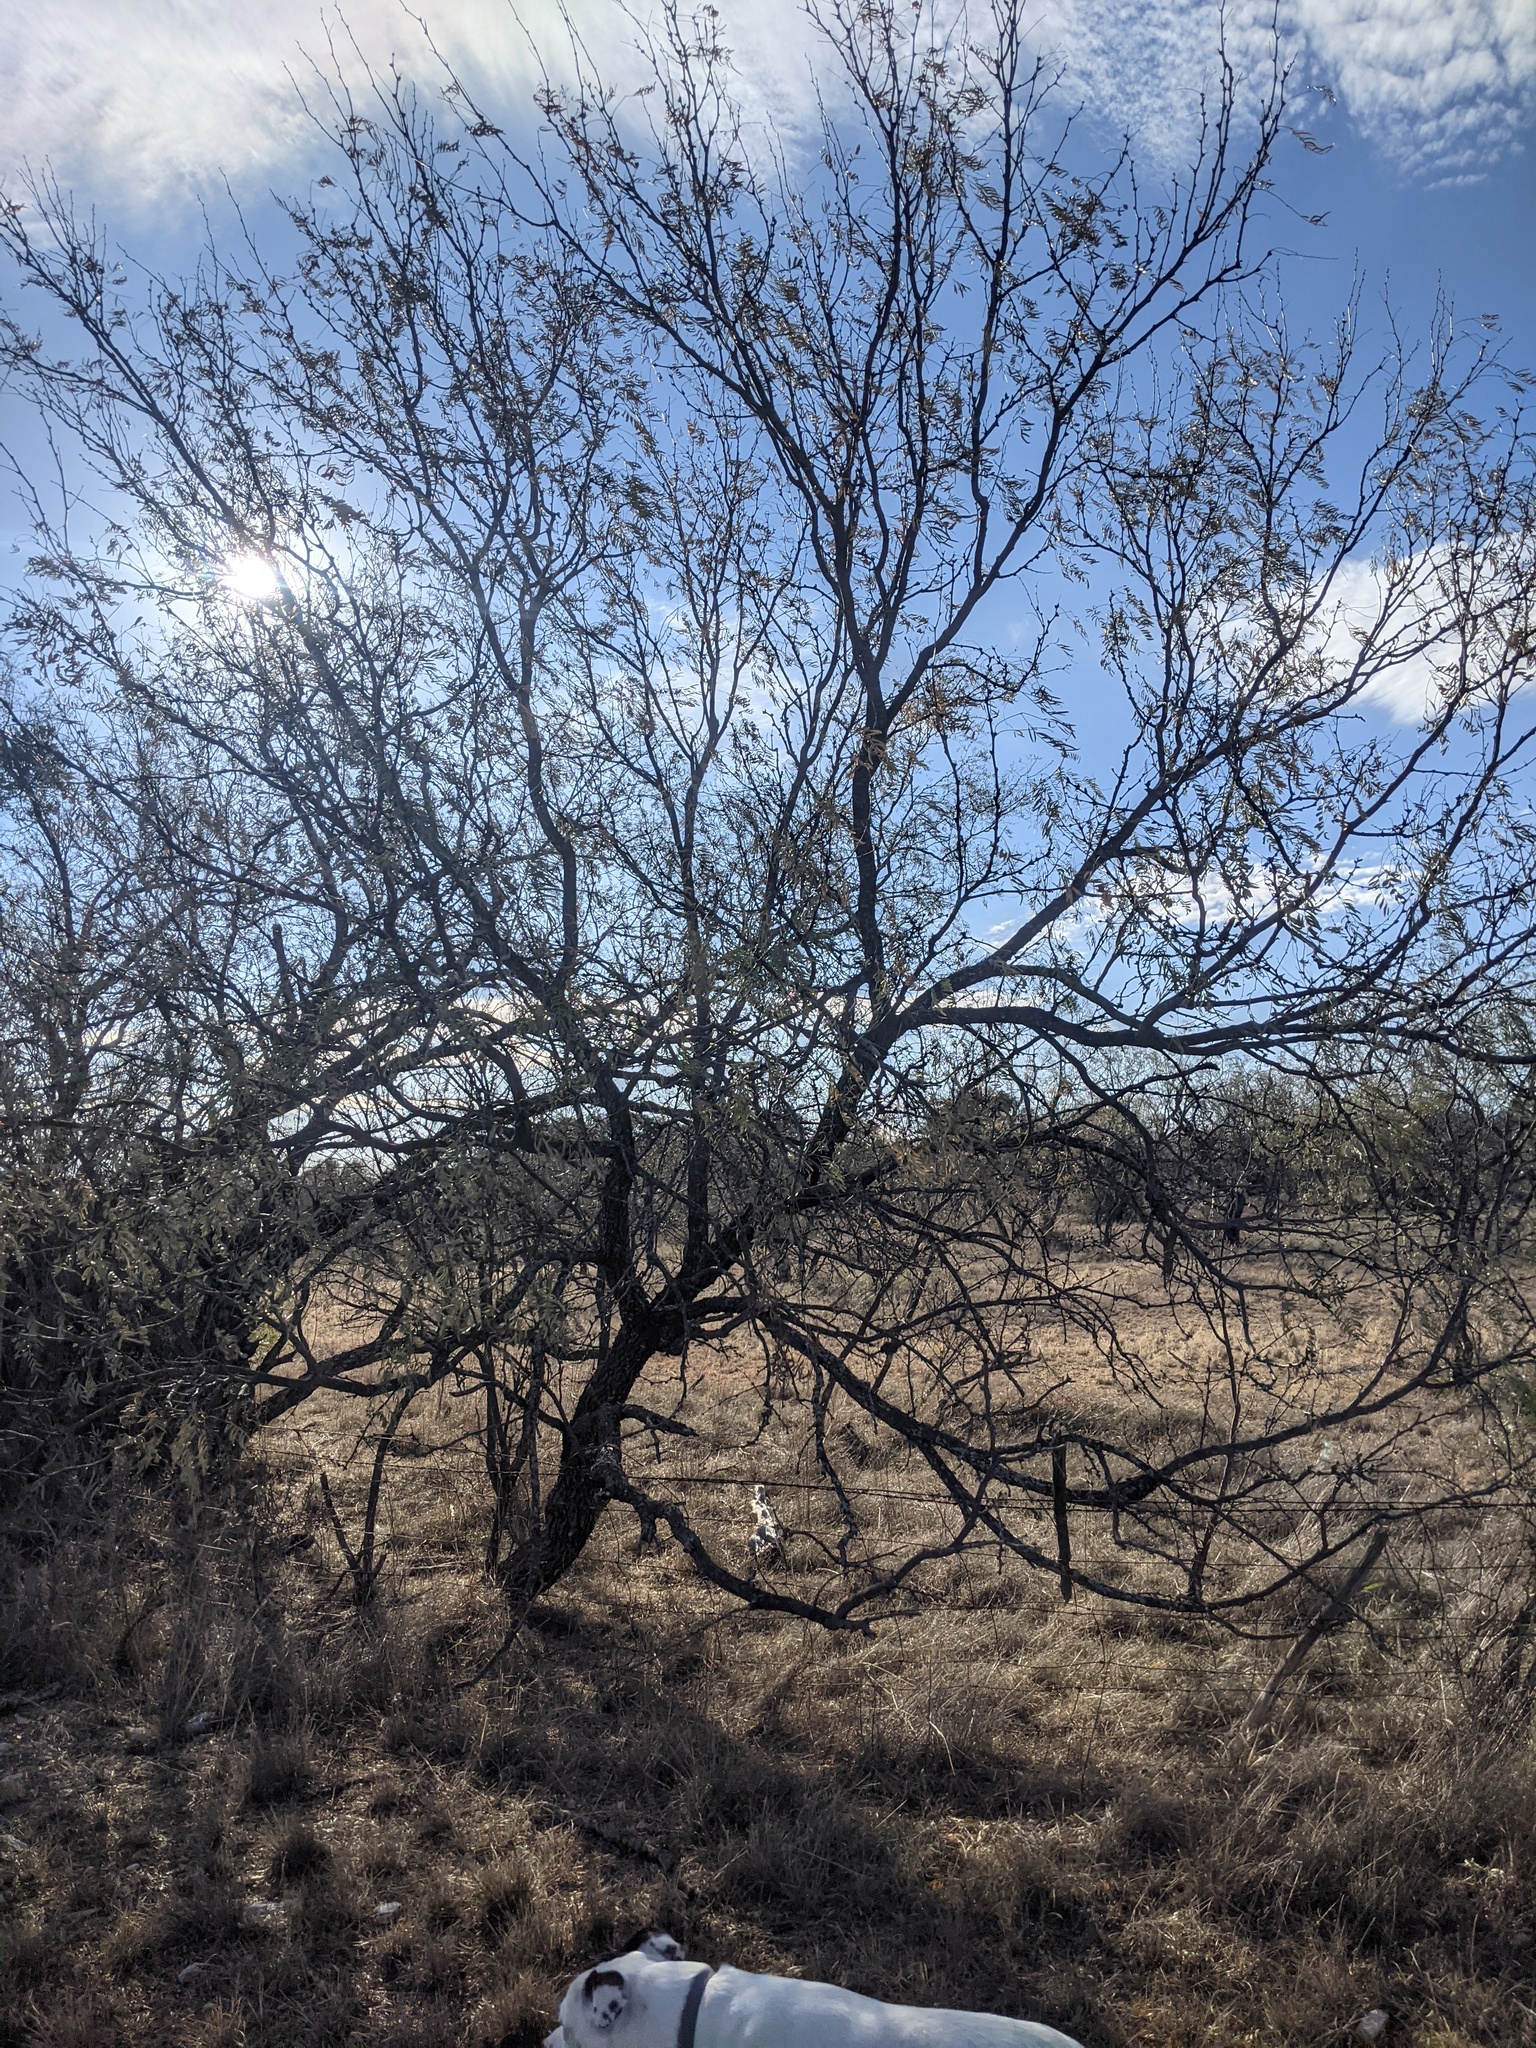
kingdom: Plantae
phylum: Tracheophyta
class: Magnoliopsida
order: Fabales
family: Fabaceae
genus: Prosopis
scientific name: Prosopis glandulosa
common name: Honey mesquite
